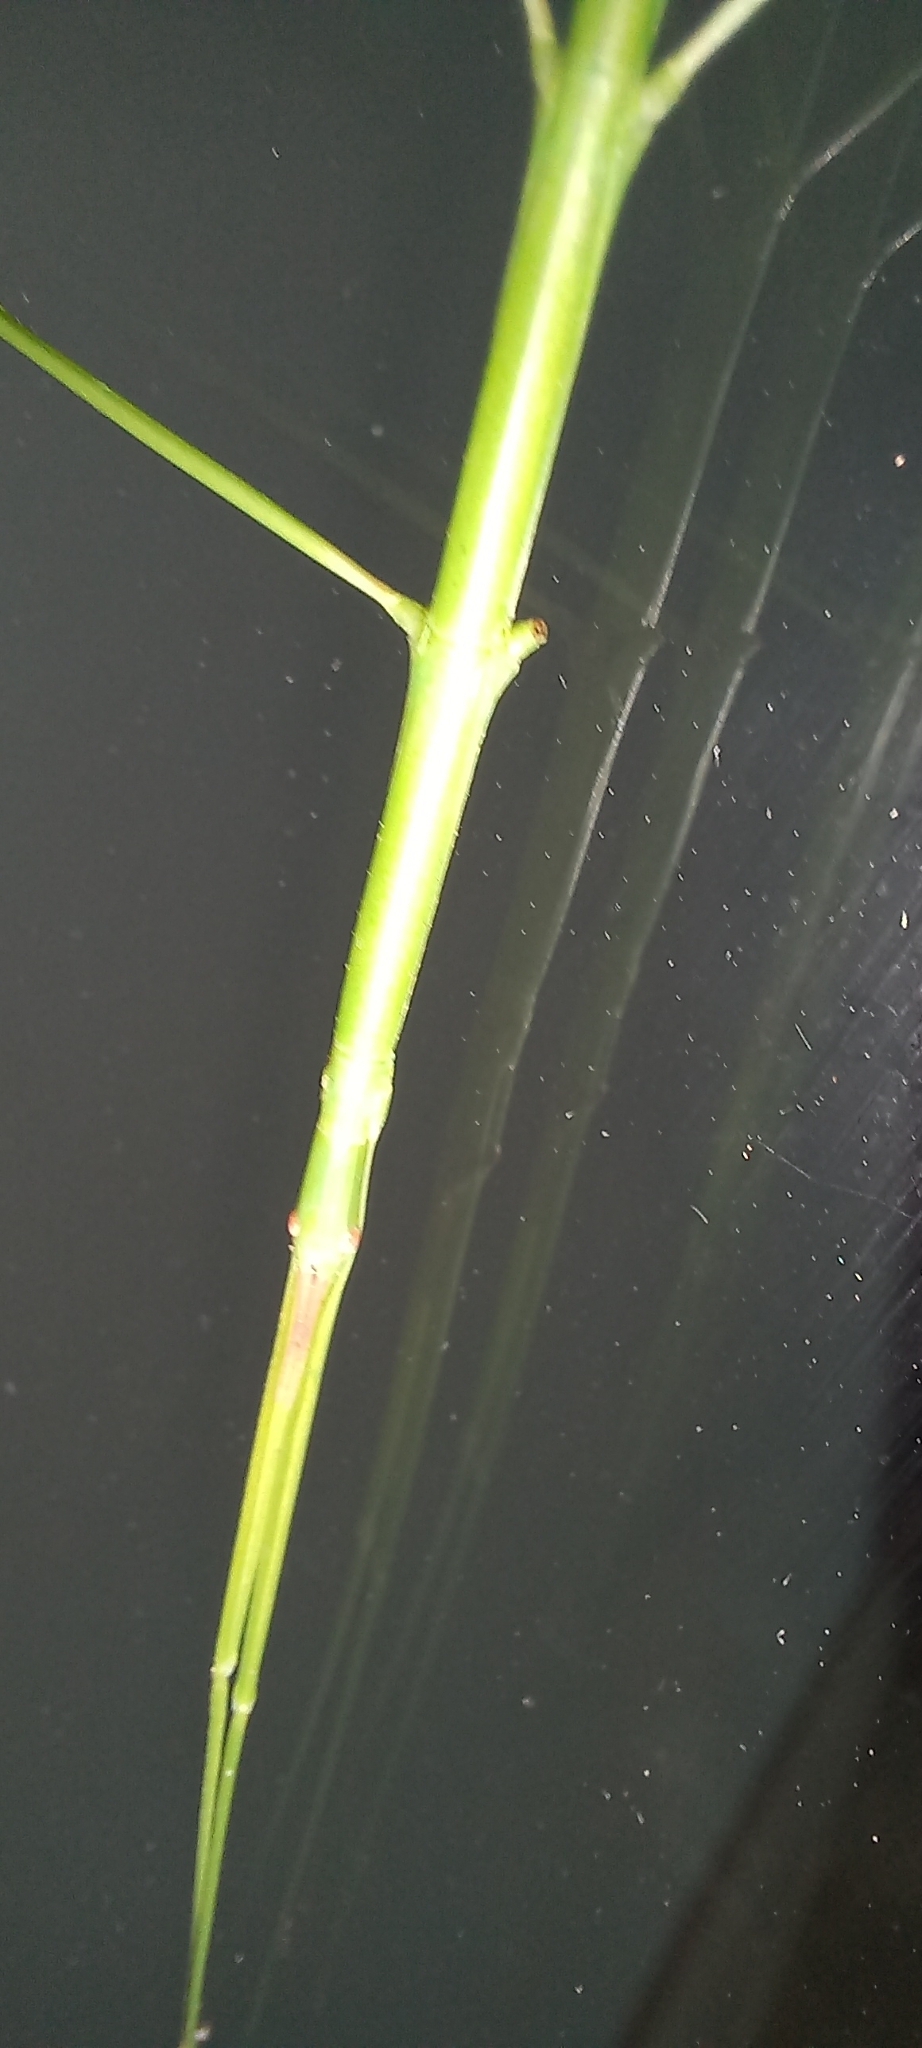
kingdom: Animalia
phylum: Arthropoda
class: Insecta
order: Phasmida
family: Bacillidae
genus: Macynia
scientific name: Macynia labiata
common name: Thunberg's stick insect
